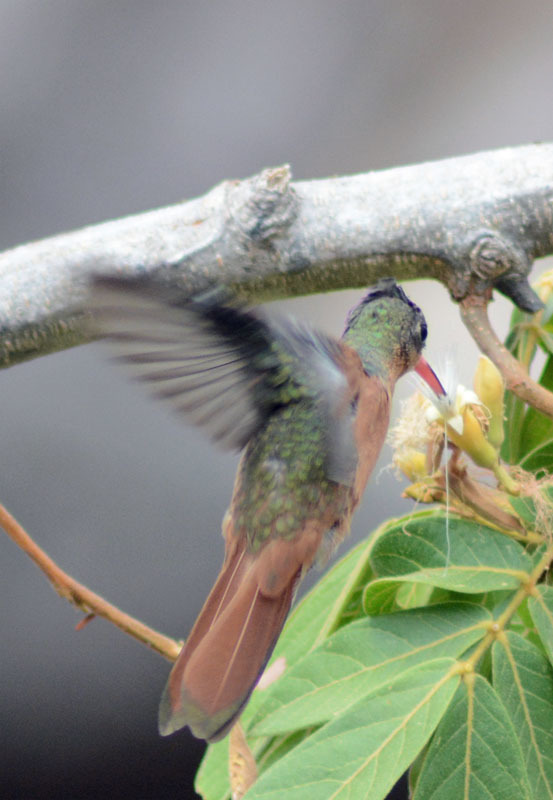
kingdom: Animalia
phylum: Chordata
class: Aves
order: Apodiformes
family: Trochilidae
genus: Amazilia
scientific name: Amazilia rutila
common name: Cinnamon hummingbird
